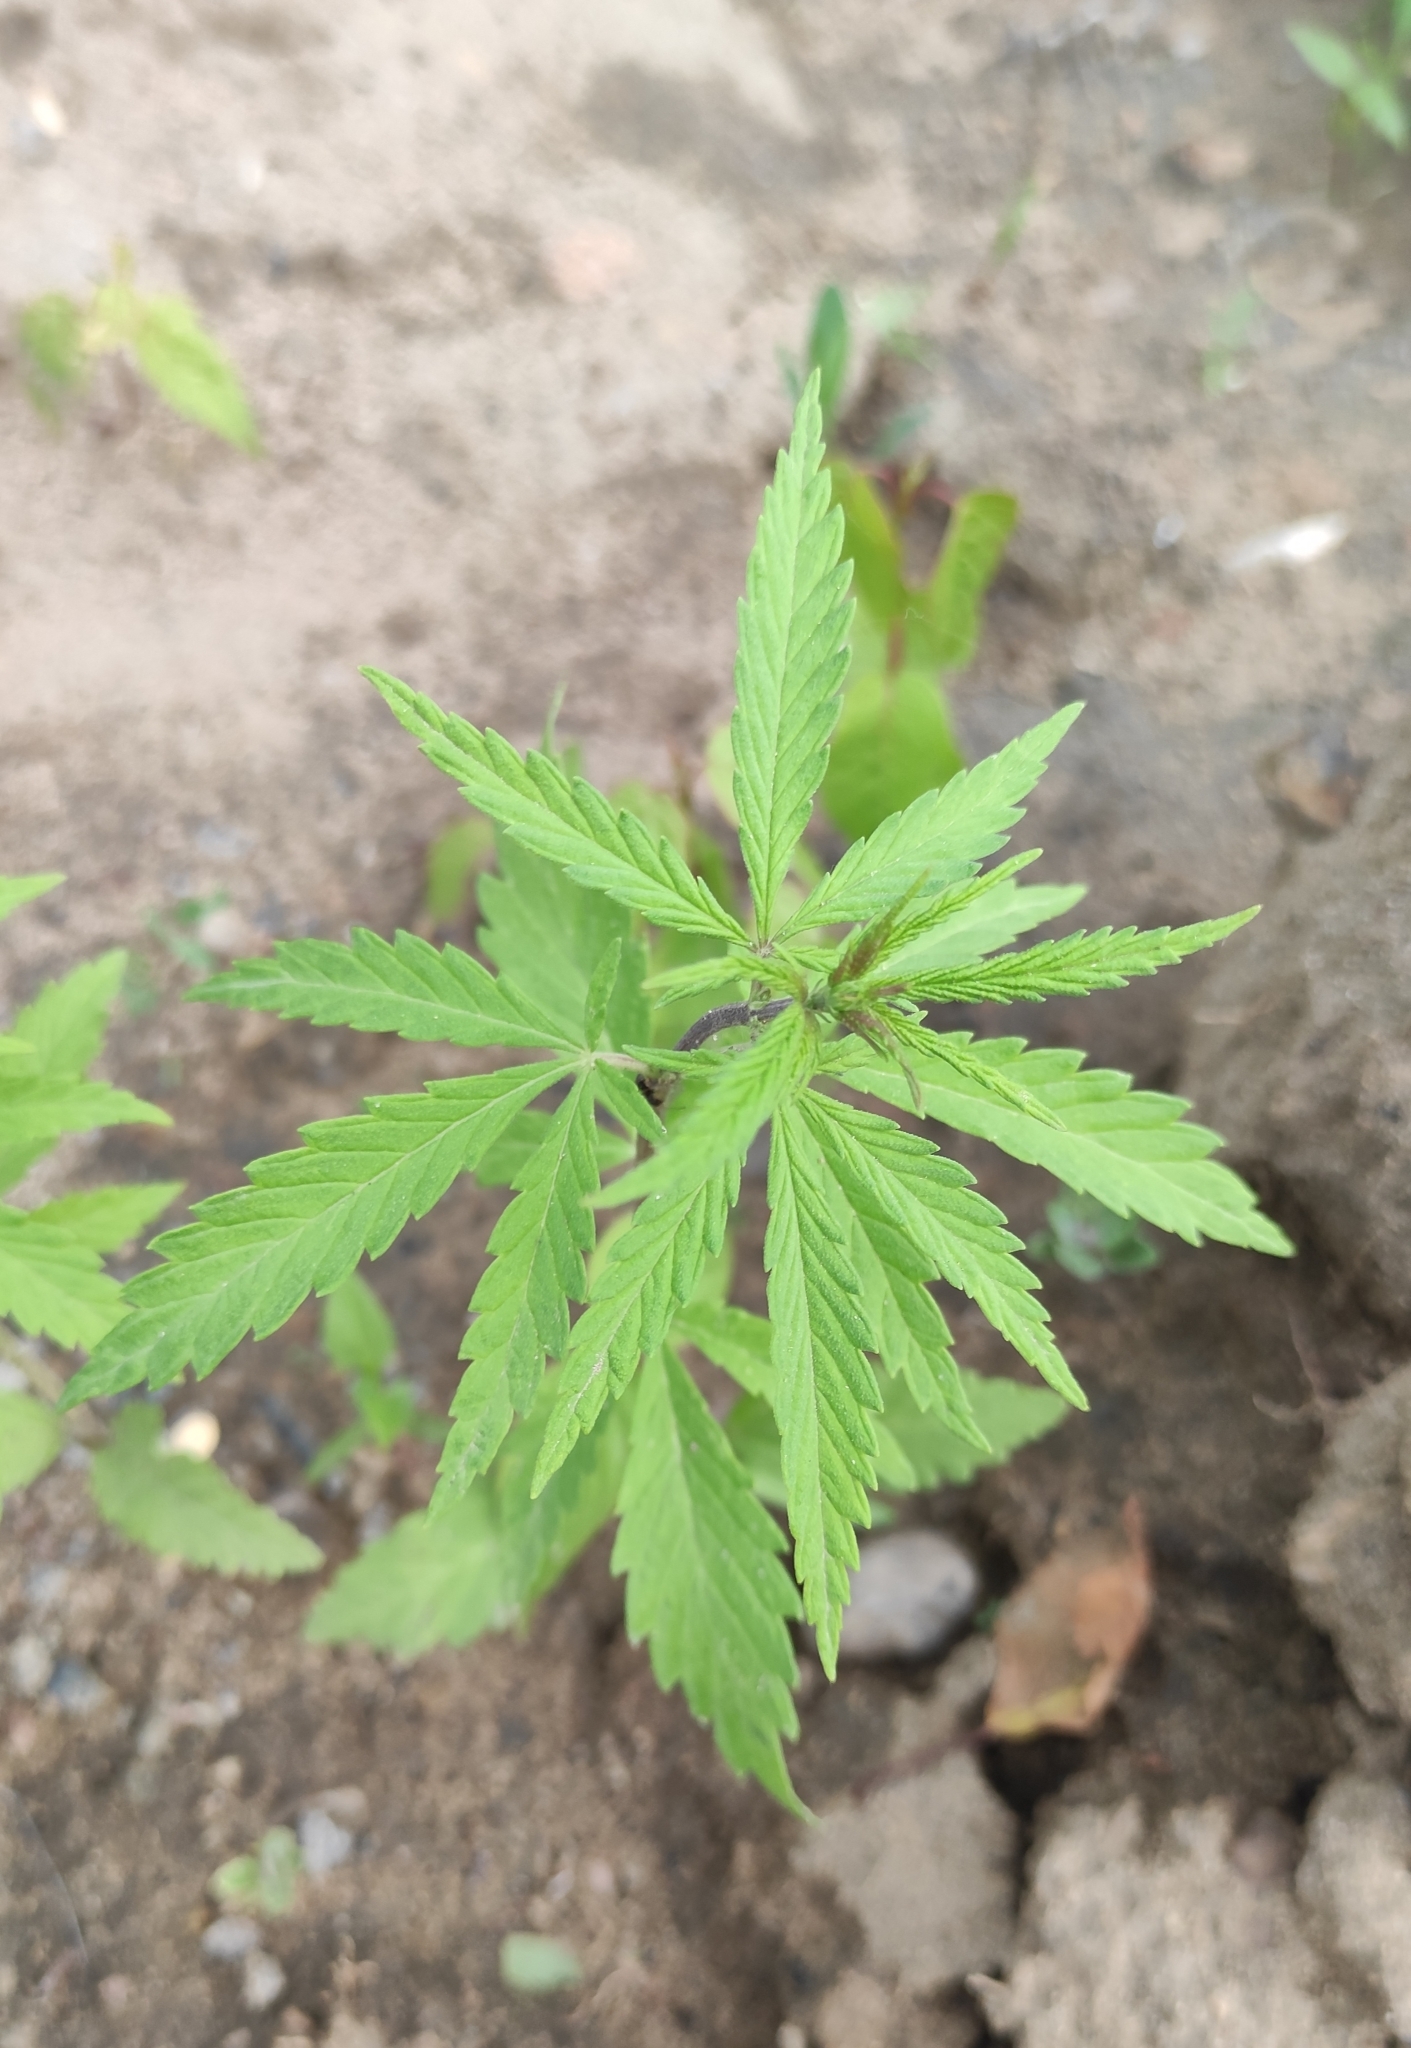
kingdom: Plantae
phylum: Tracheophyta
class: Magnoliopsida
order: Rosales
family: Cannabaceae
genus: Cannabis
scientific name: Cannabis sativa
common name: Hemp
